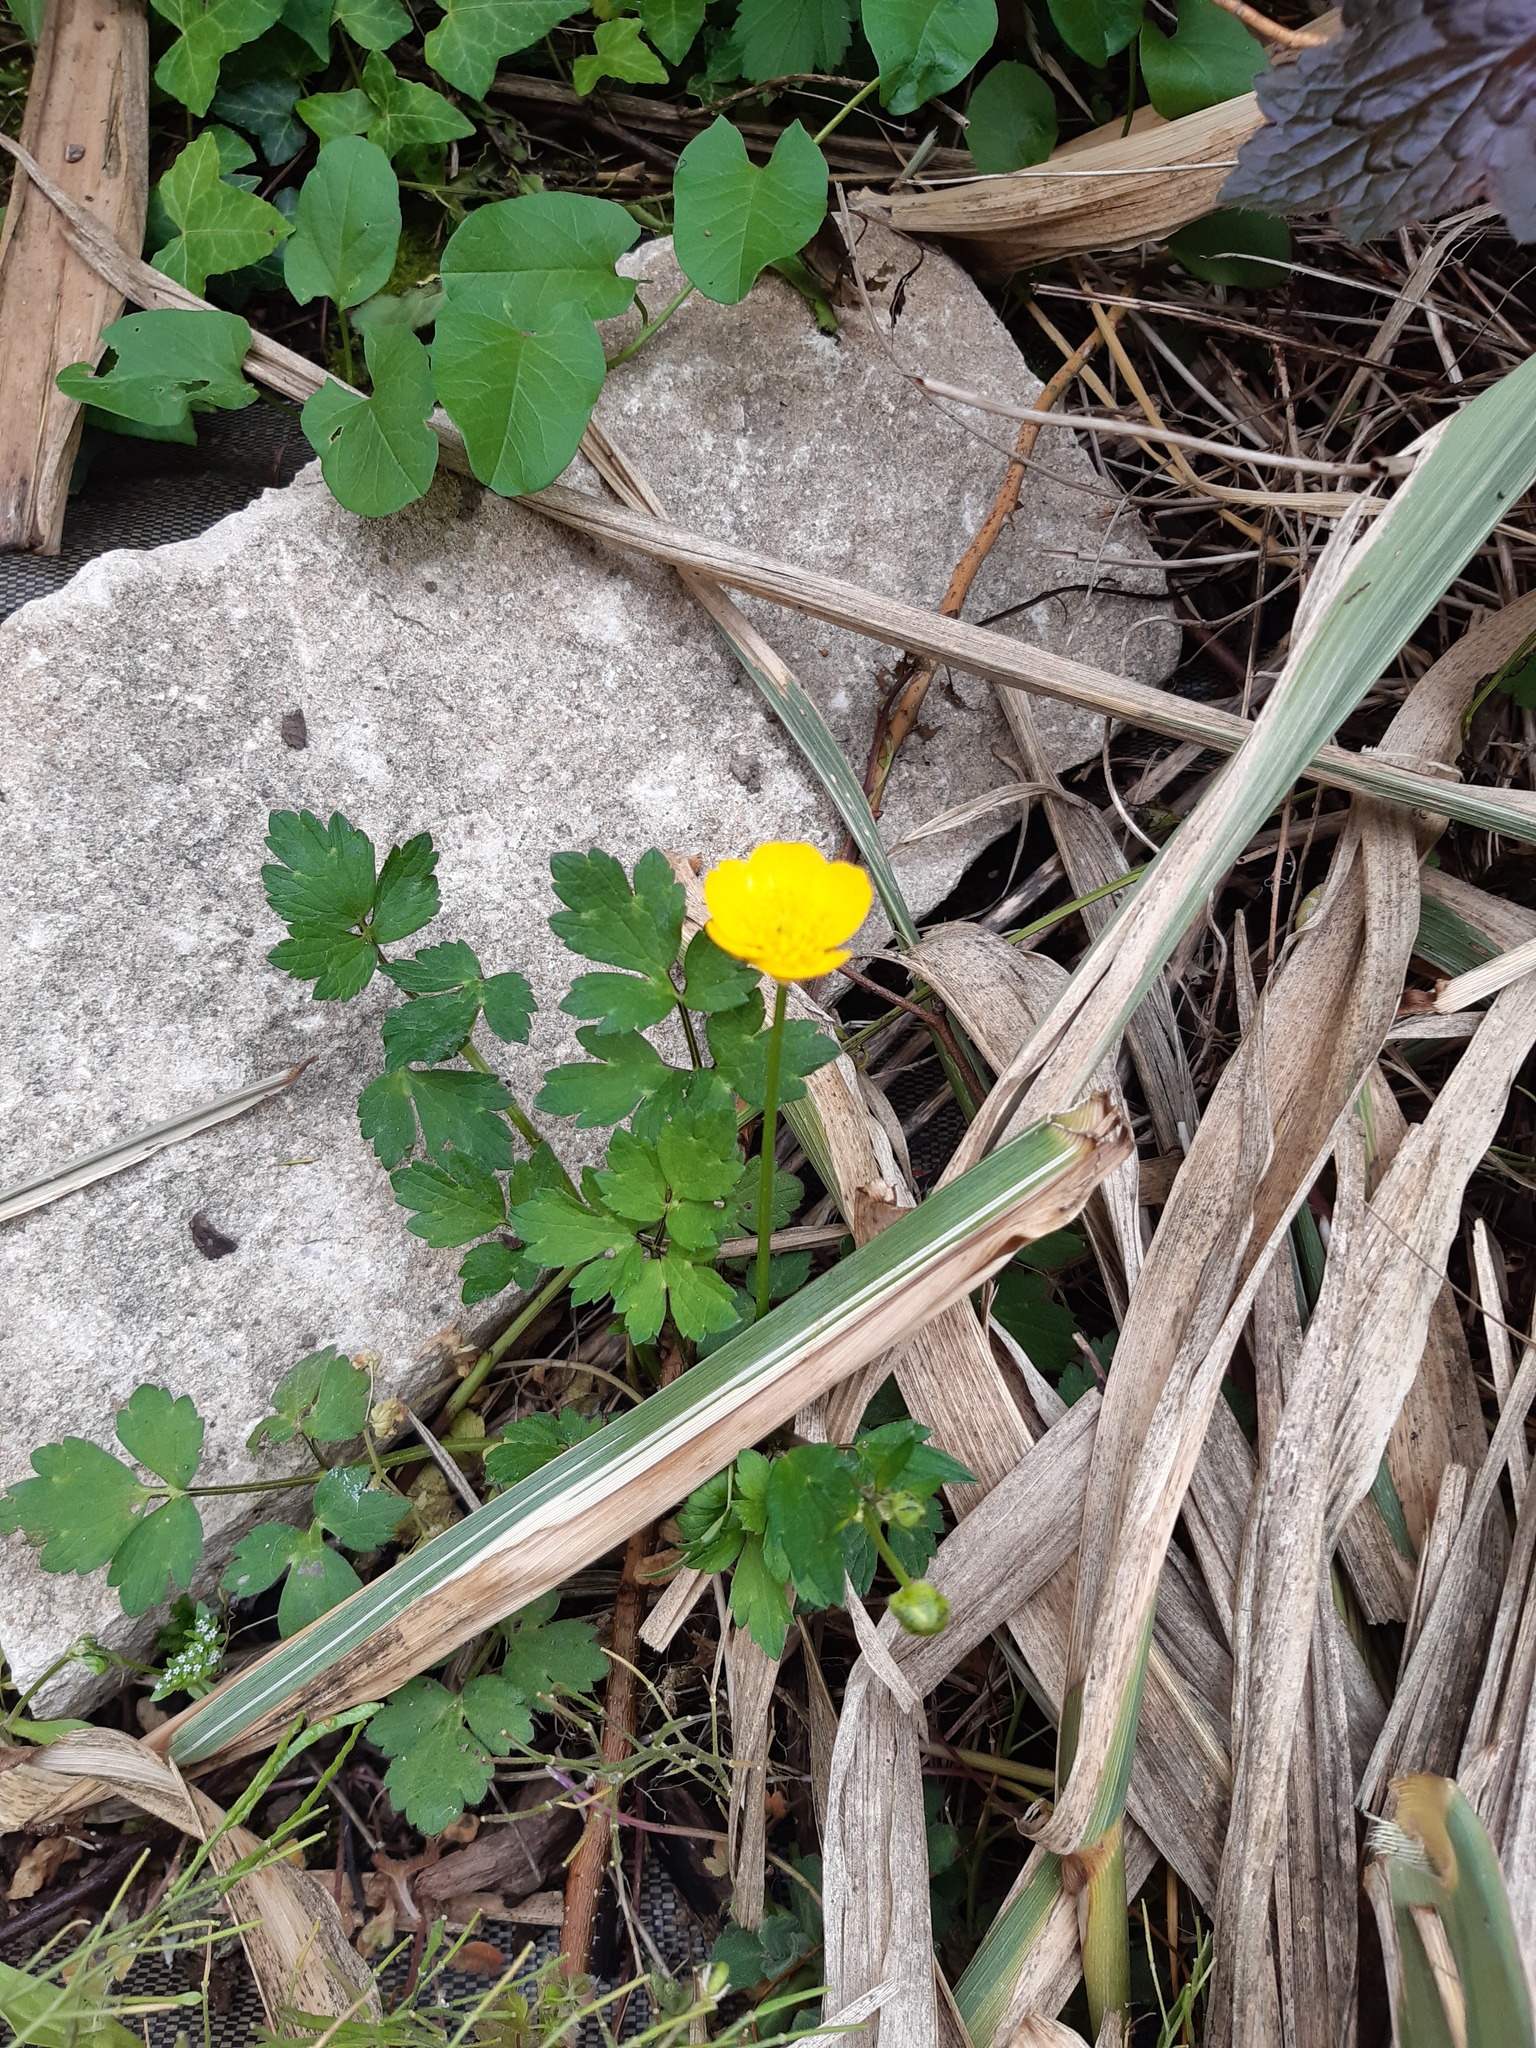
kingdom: Plantae
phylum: Tracheophyta
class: Magnoliopsida
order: Ranunculales
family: Ranunculaceae
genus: Ranunculus
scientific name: Ranunculus repens
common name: Creeping buttercup
